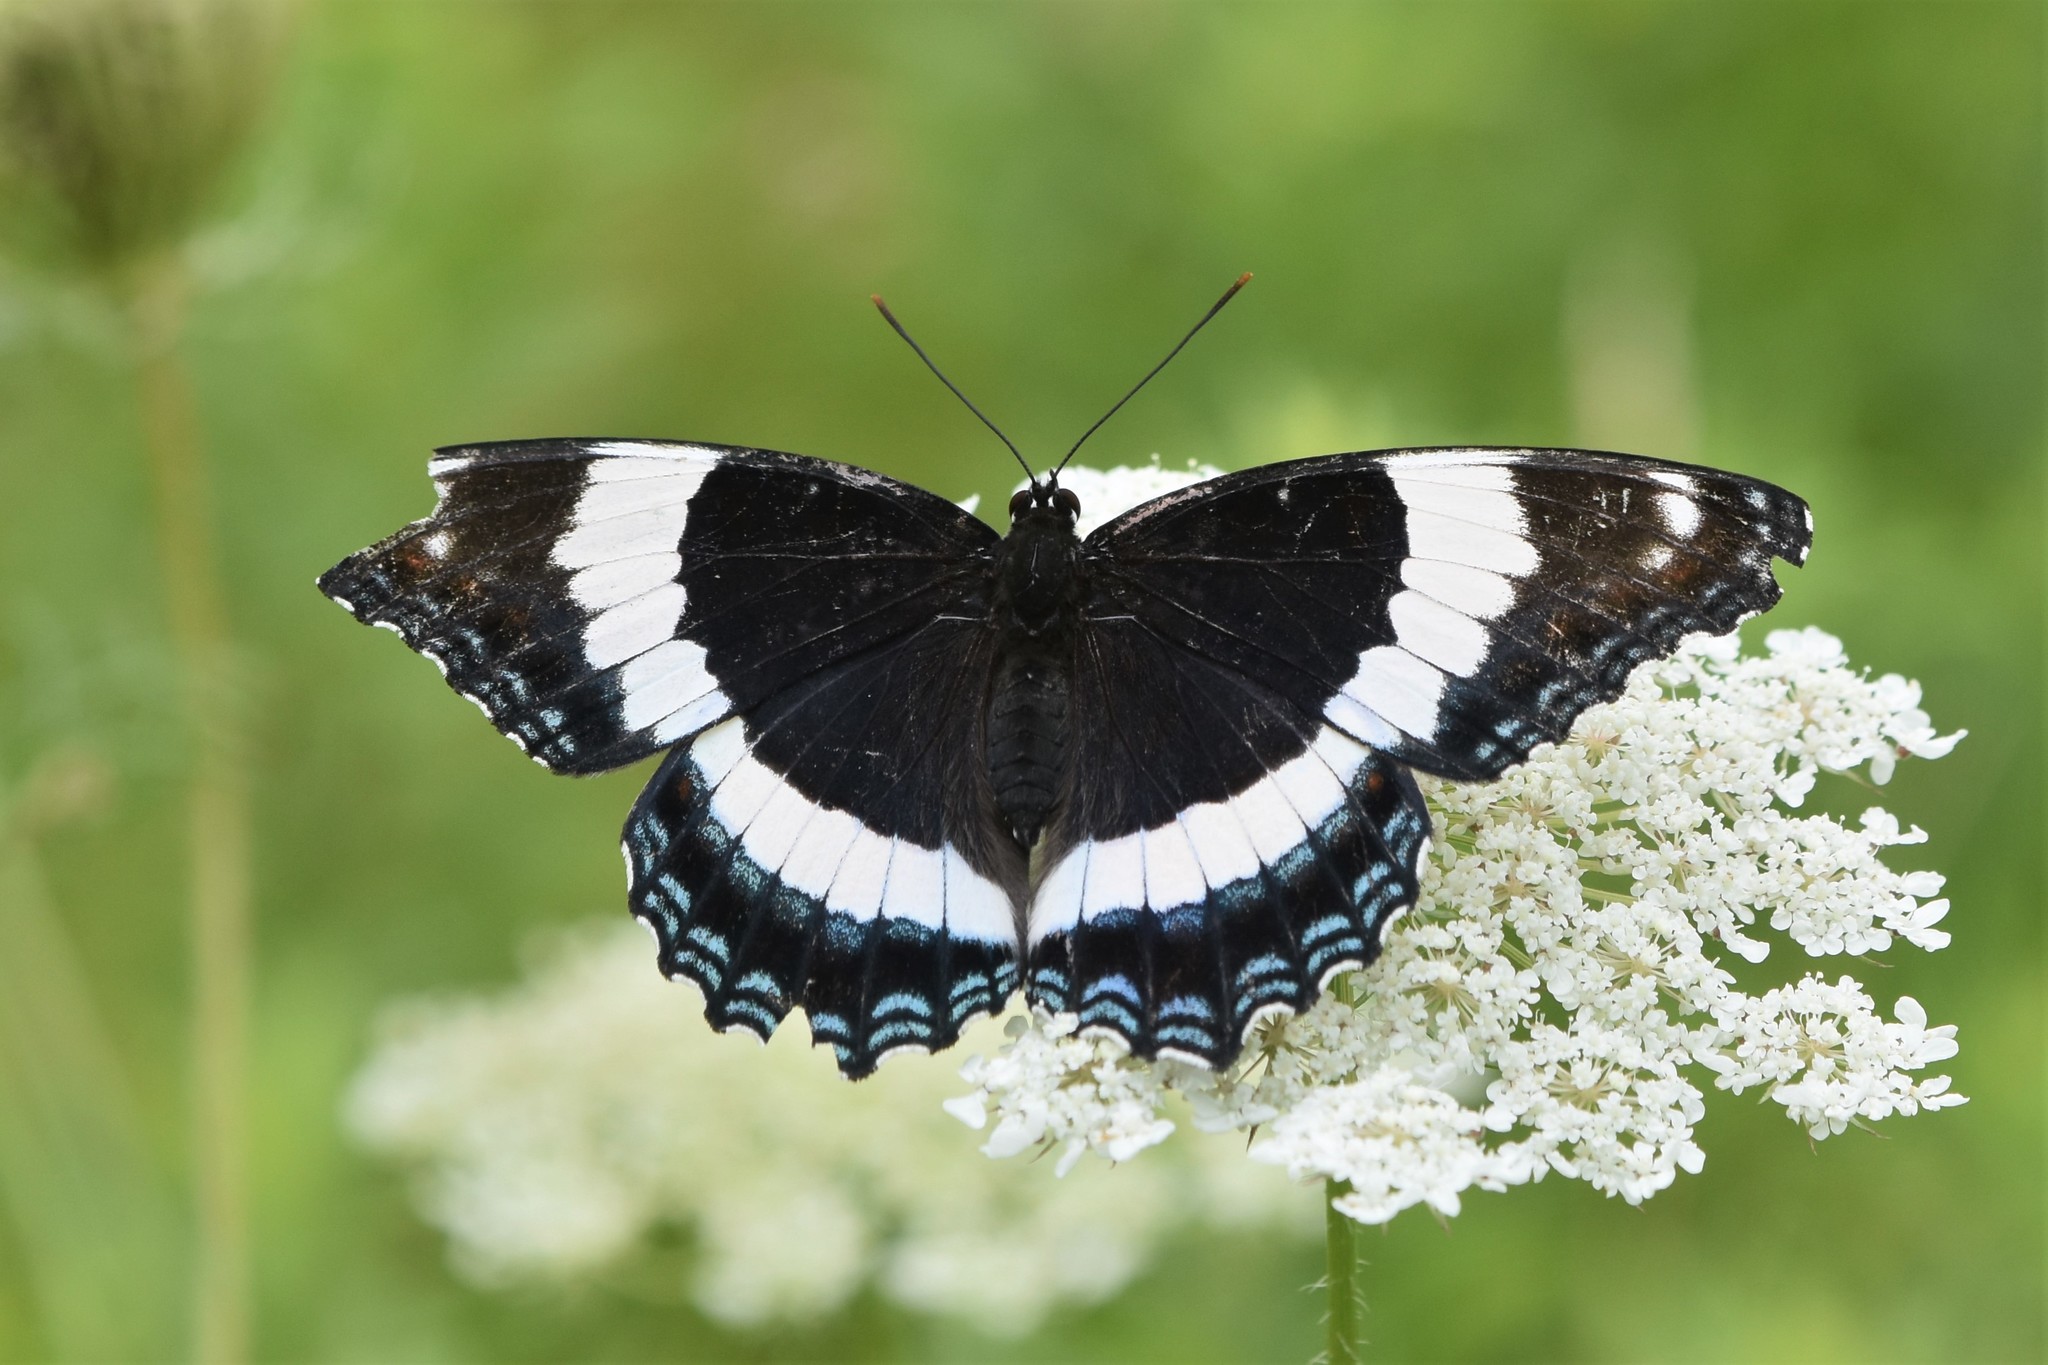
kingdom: Animalia
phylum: Arthropoda
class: Insecta
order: Lepidoptera
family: Nymphalidae
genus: Limenitis
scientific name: Limenitis arthemis
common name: Red-spotted admiral
